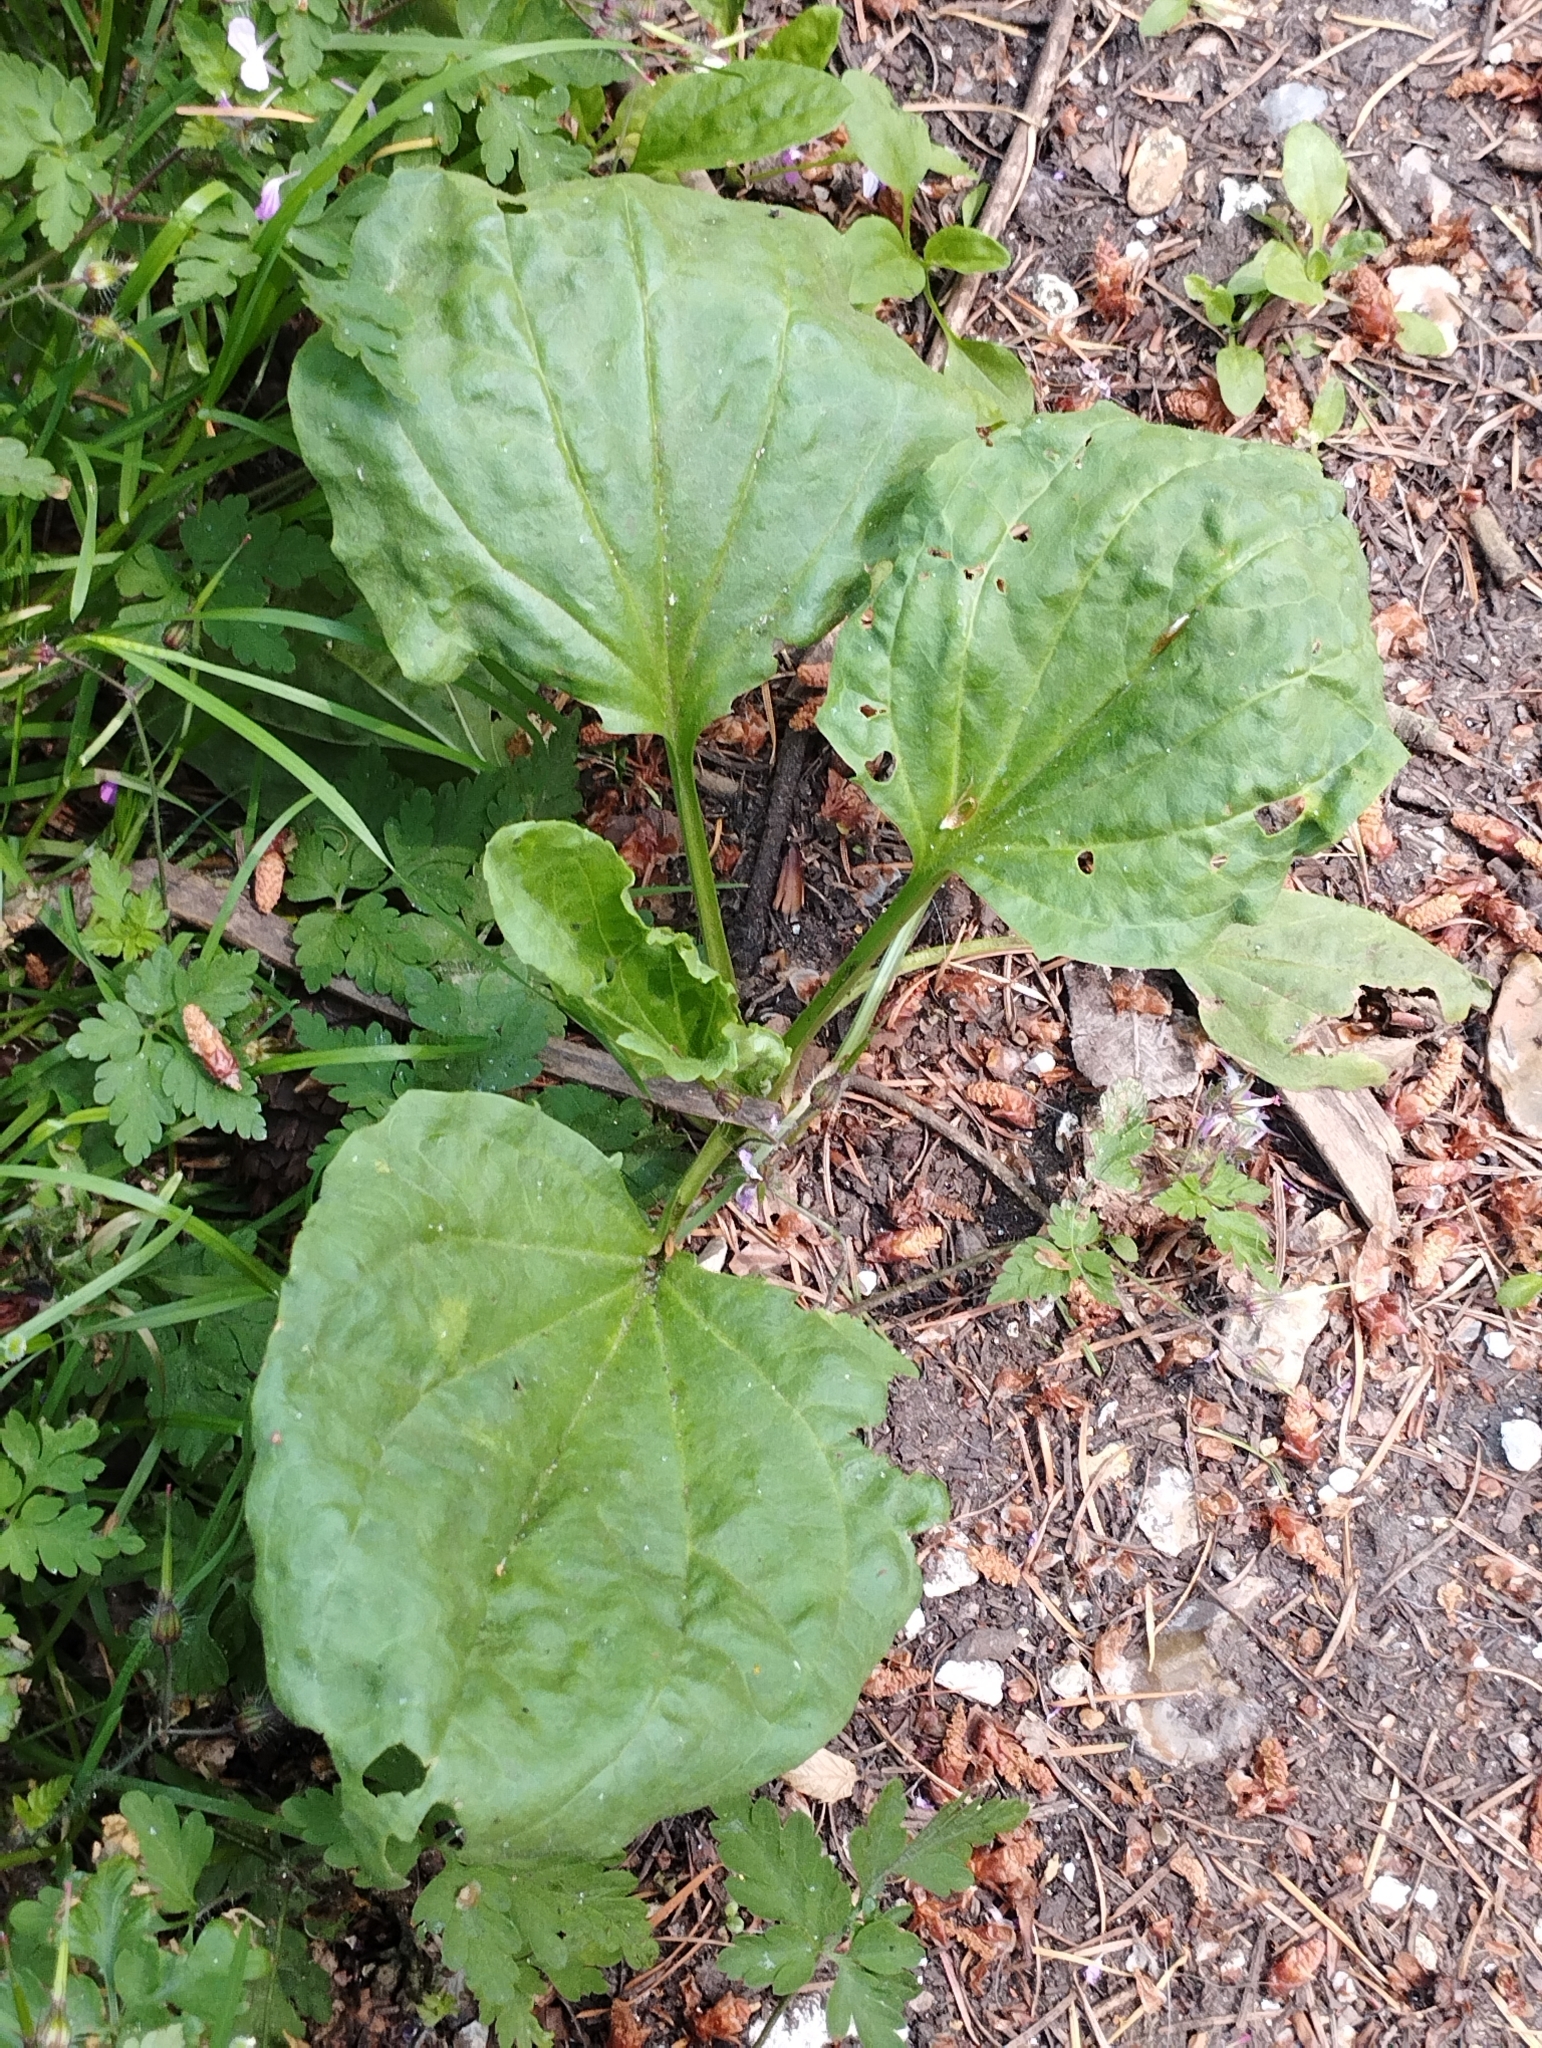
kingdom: Plantae
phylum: Tracheophyta
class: Magnoliopsida
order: Lamiales
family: Plantaginaceae
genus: Plantago
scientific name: Plantago major
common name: Common plantain
